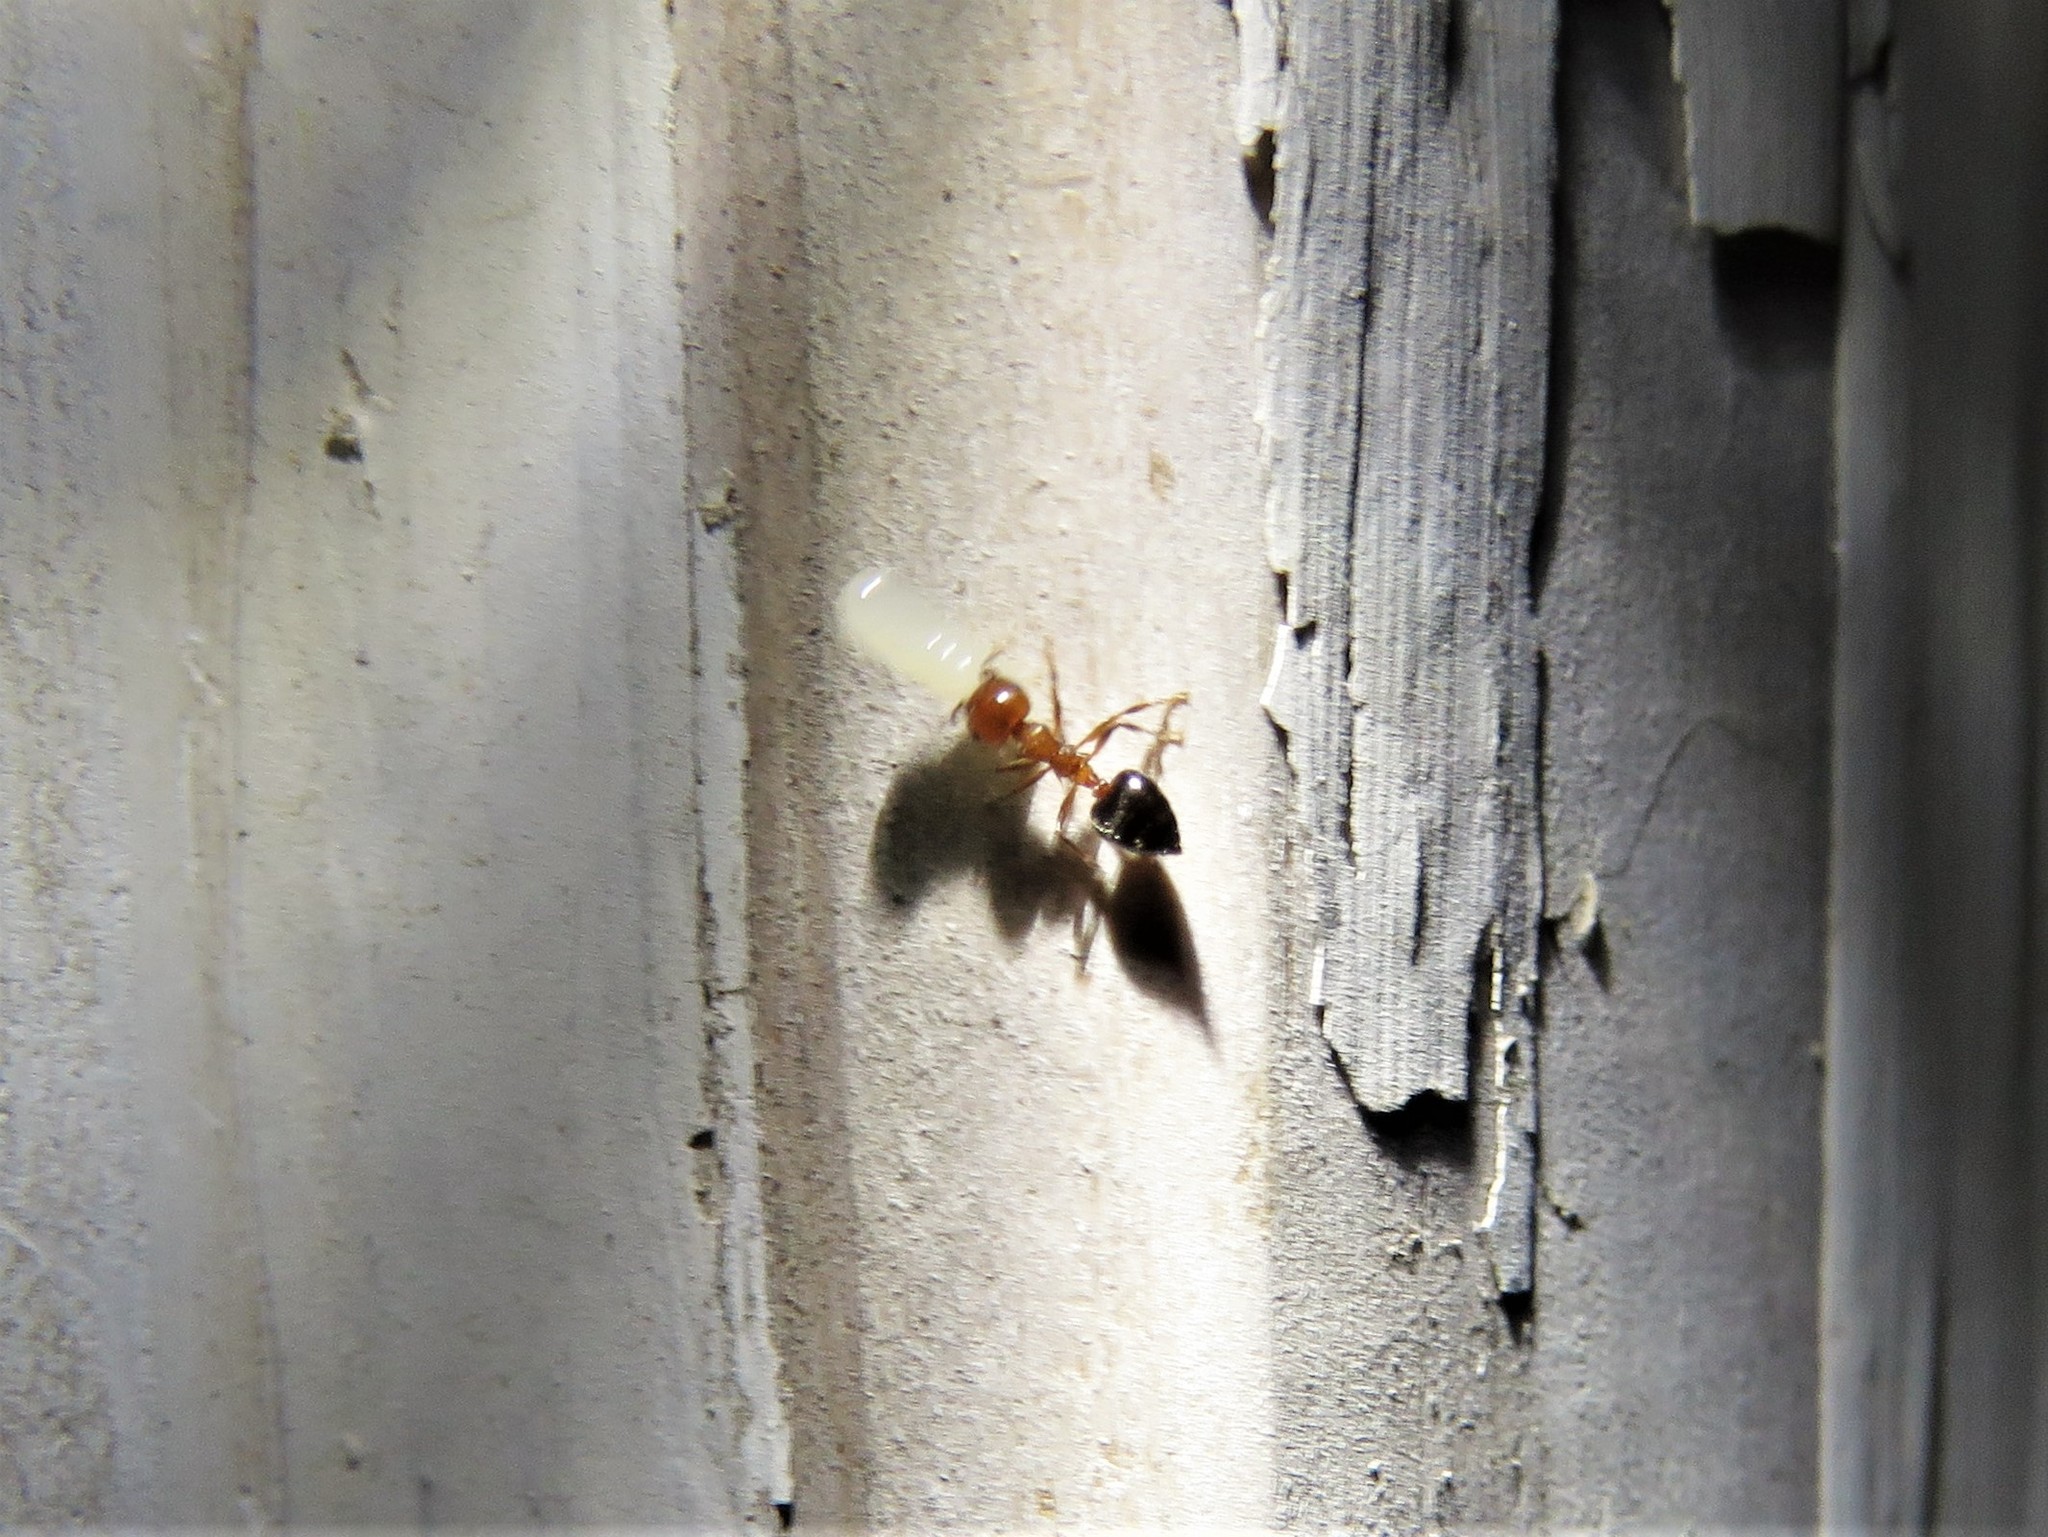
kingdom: Animalia
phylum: Arthropoda
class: Insecta
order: Hymenoptera
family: Formicidae
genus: Crematogaster
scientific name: Crematogaster laeviuscula
